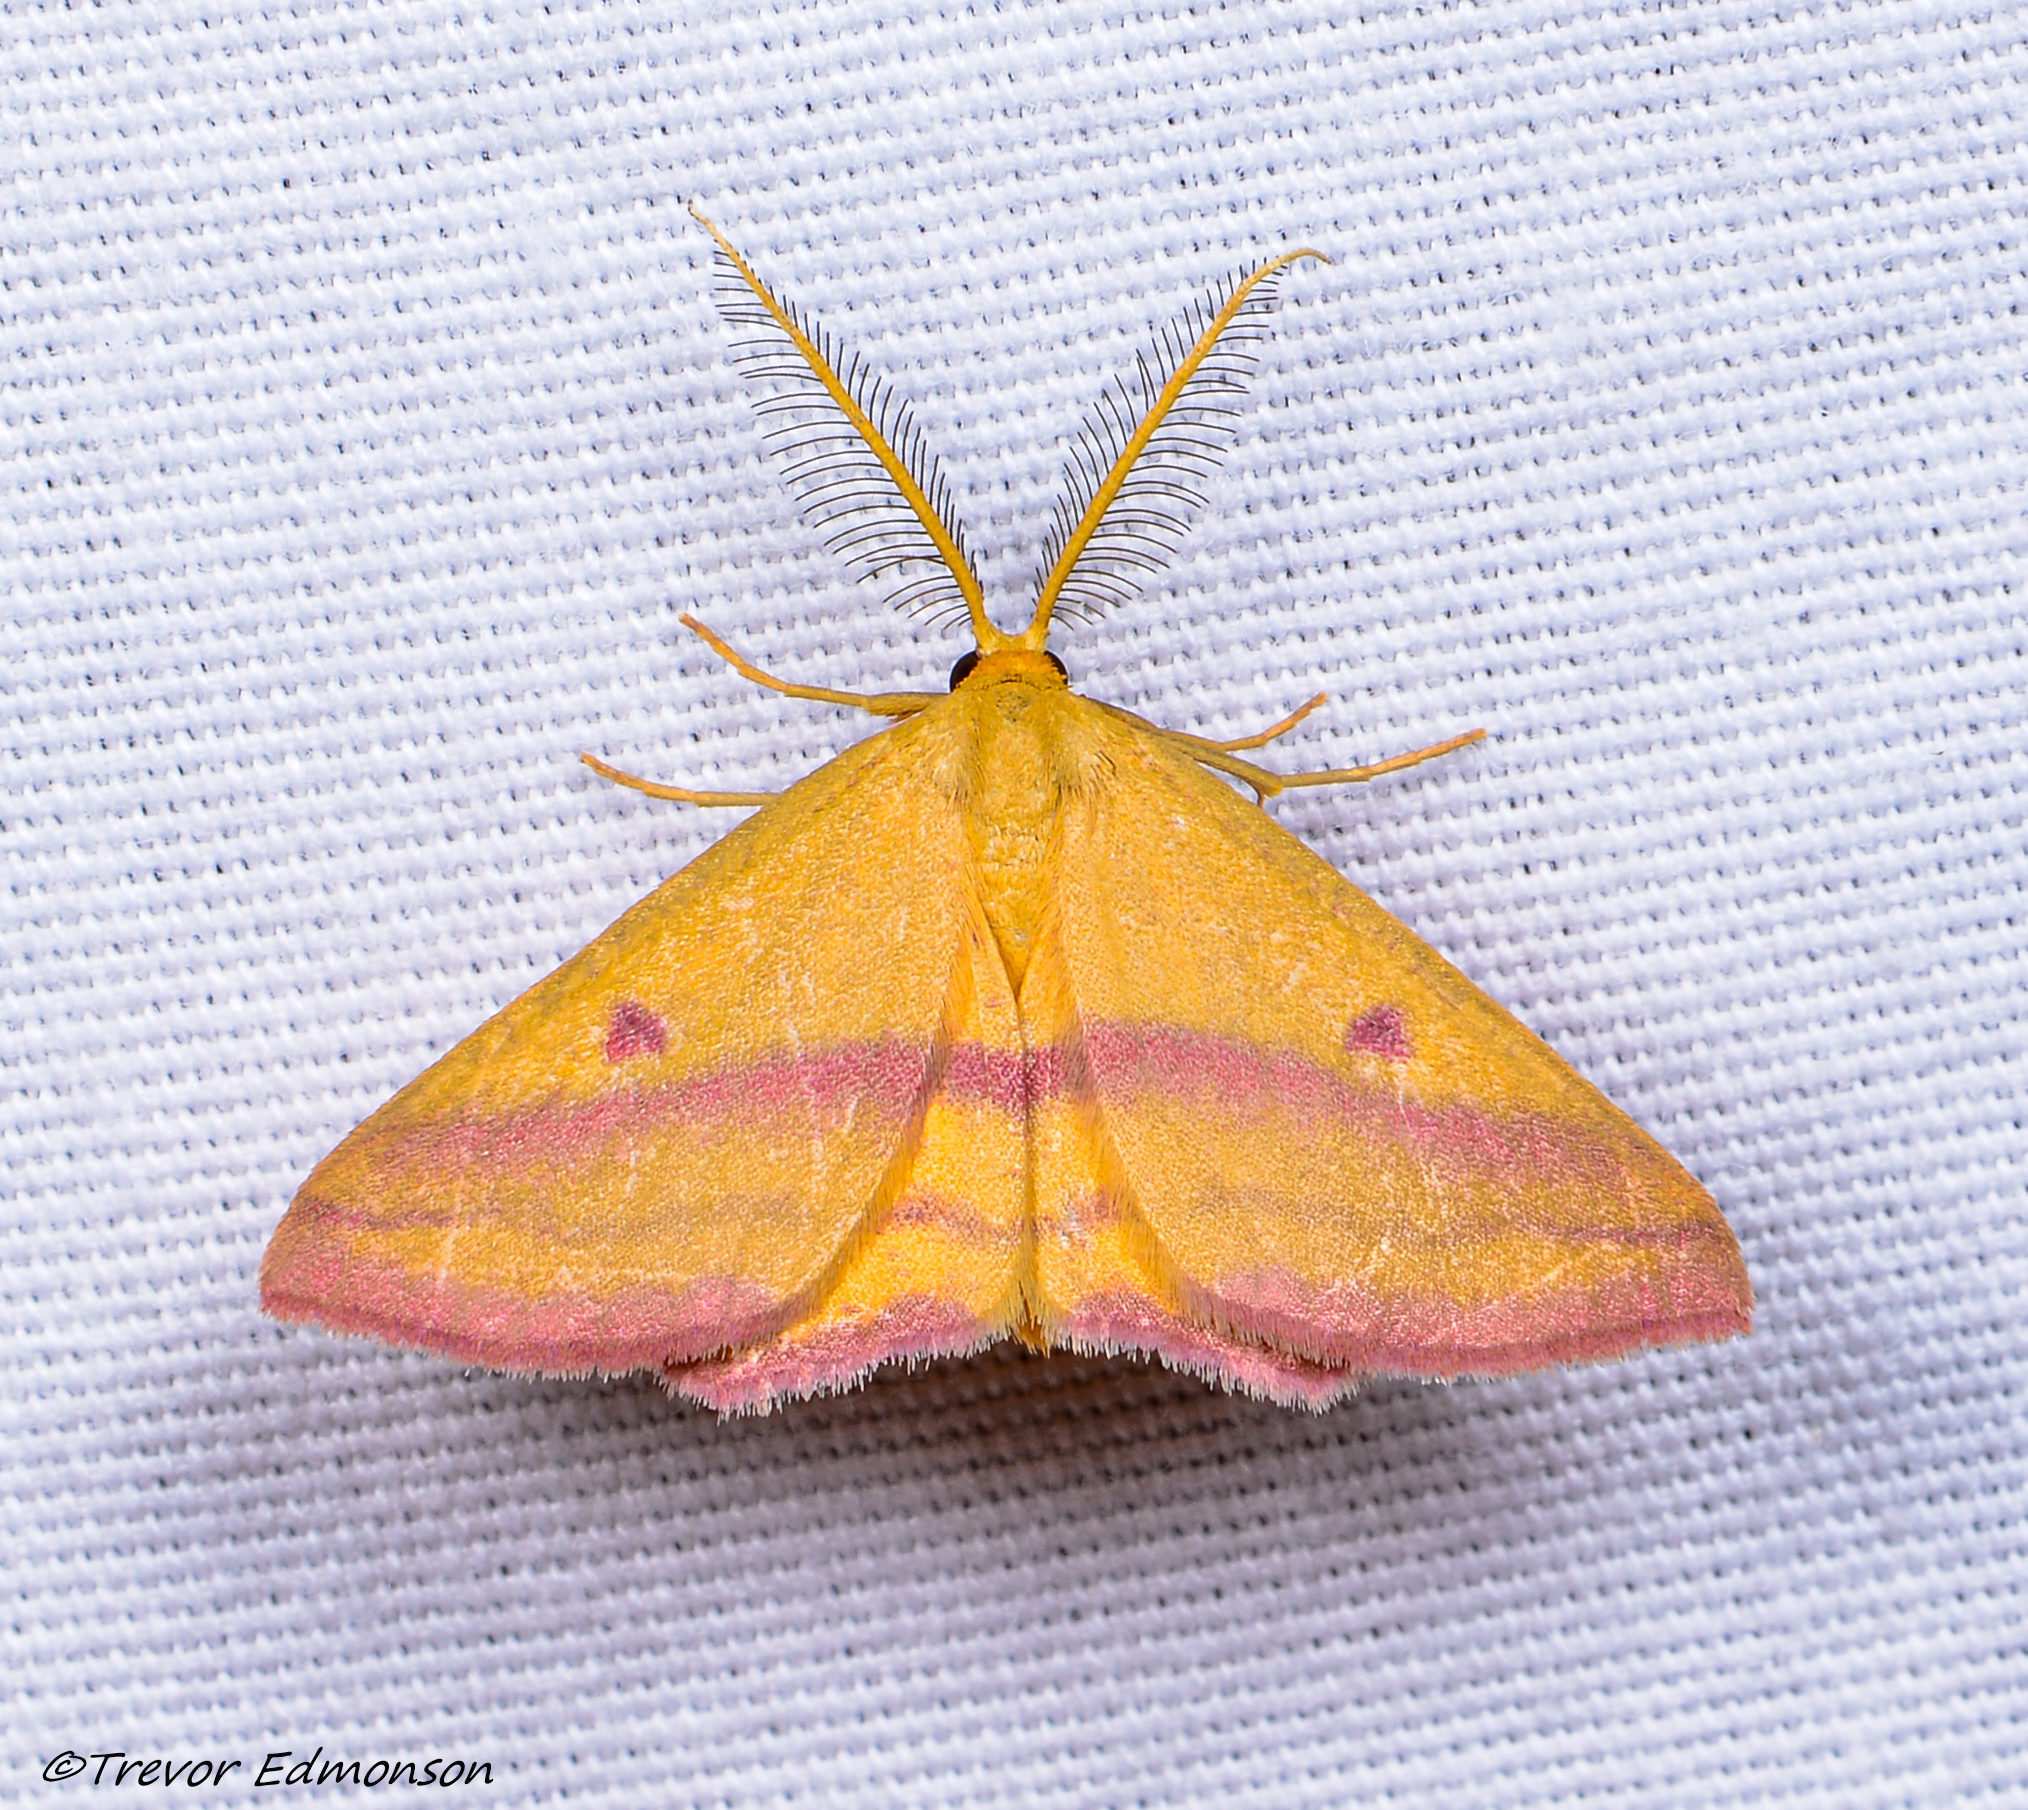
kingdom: Animalia
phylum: Arthropoda
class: Insecta
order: Lepidoptera
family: Geometridae
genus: Haematopis
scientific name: Haematopis grataria
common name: Chickweed geometer
